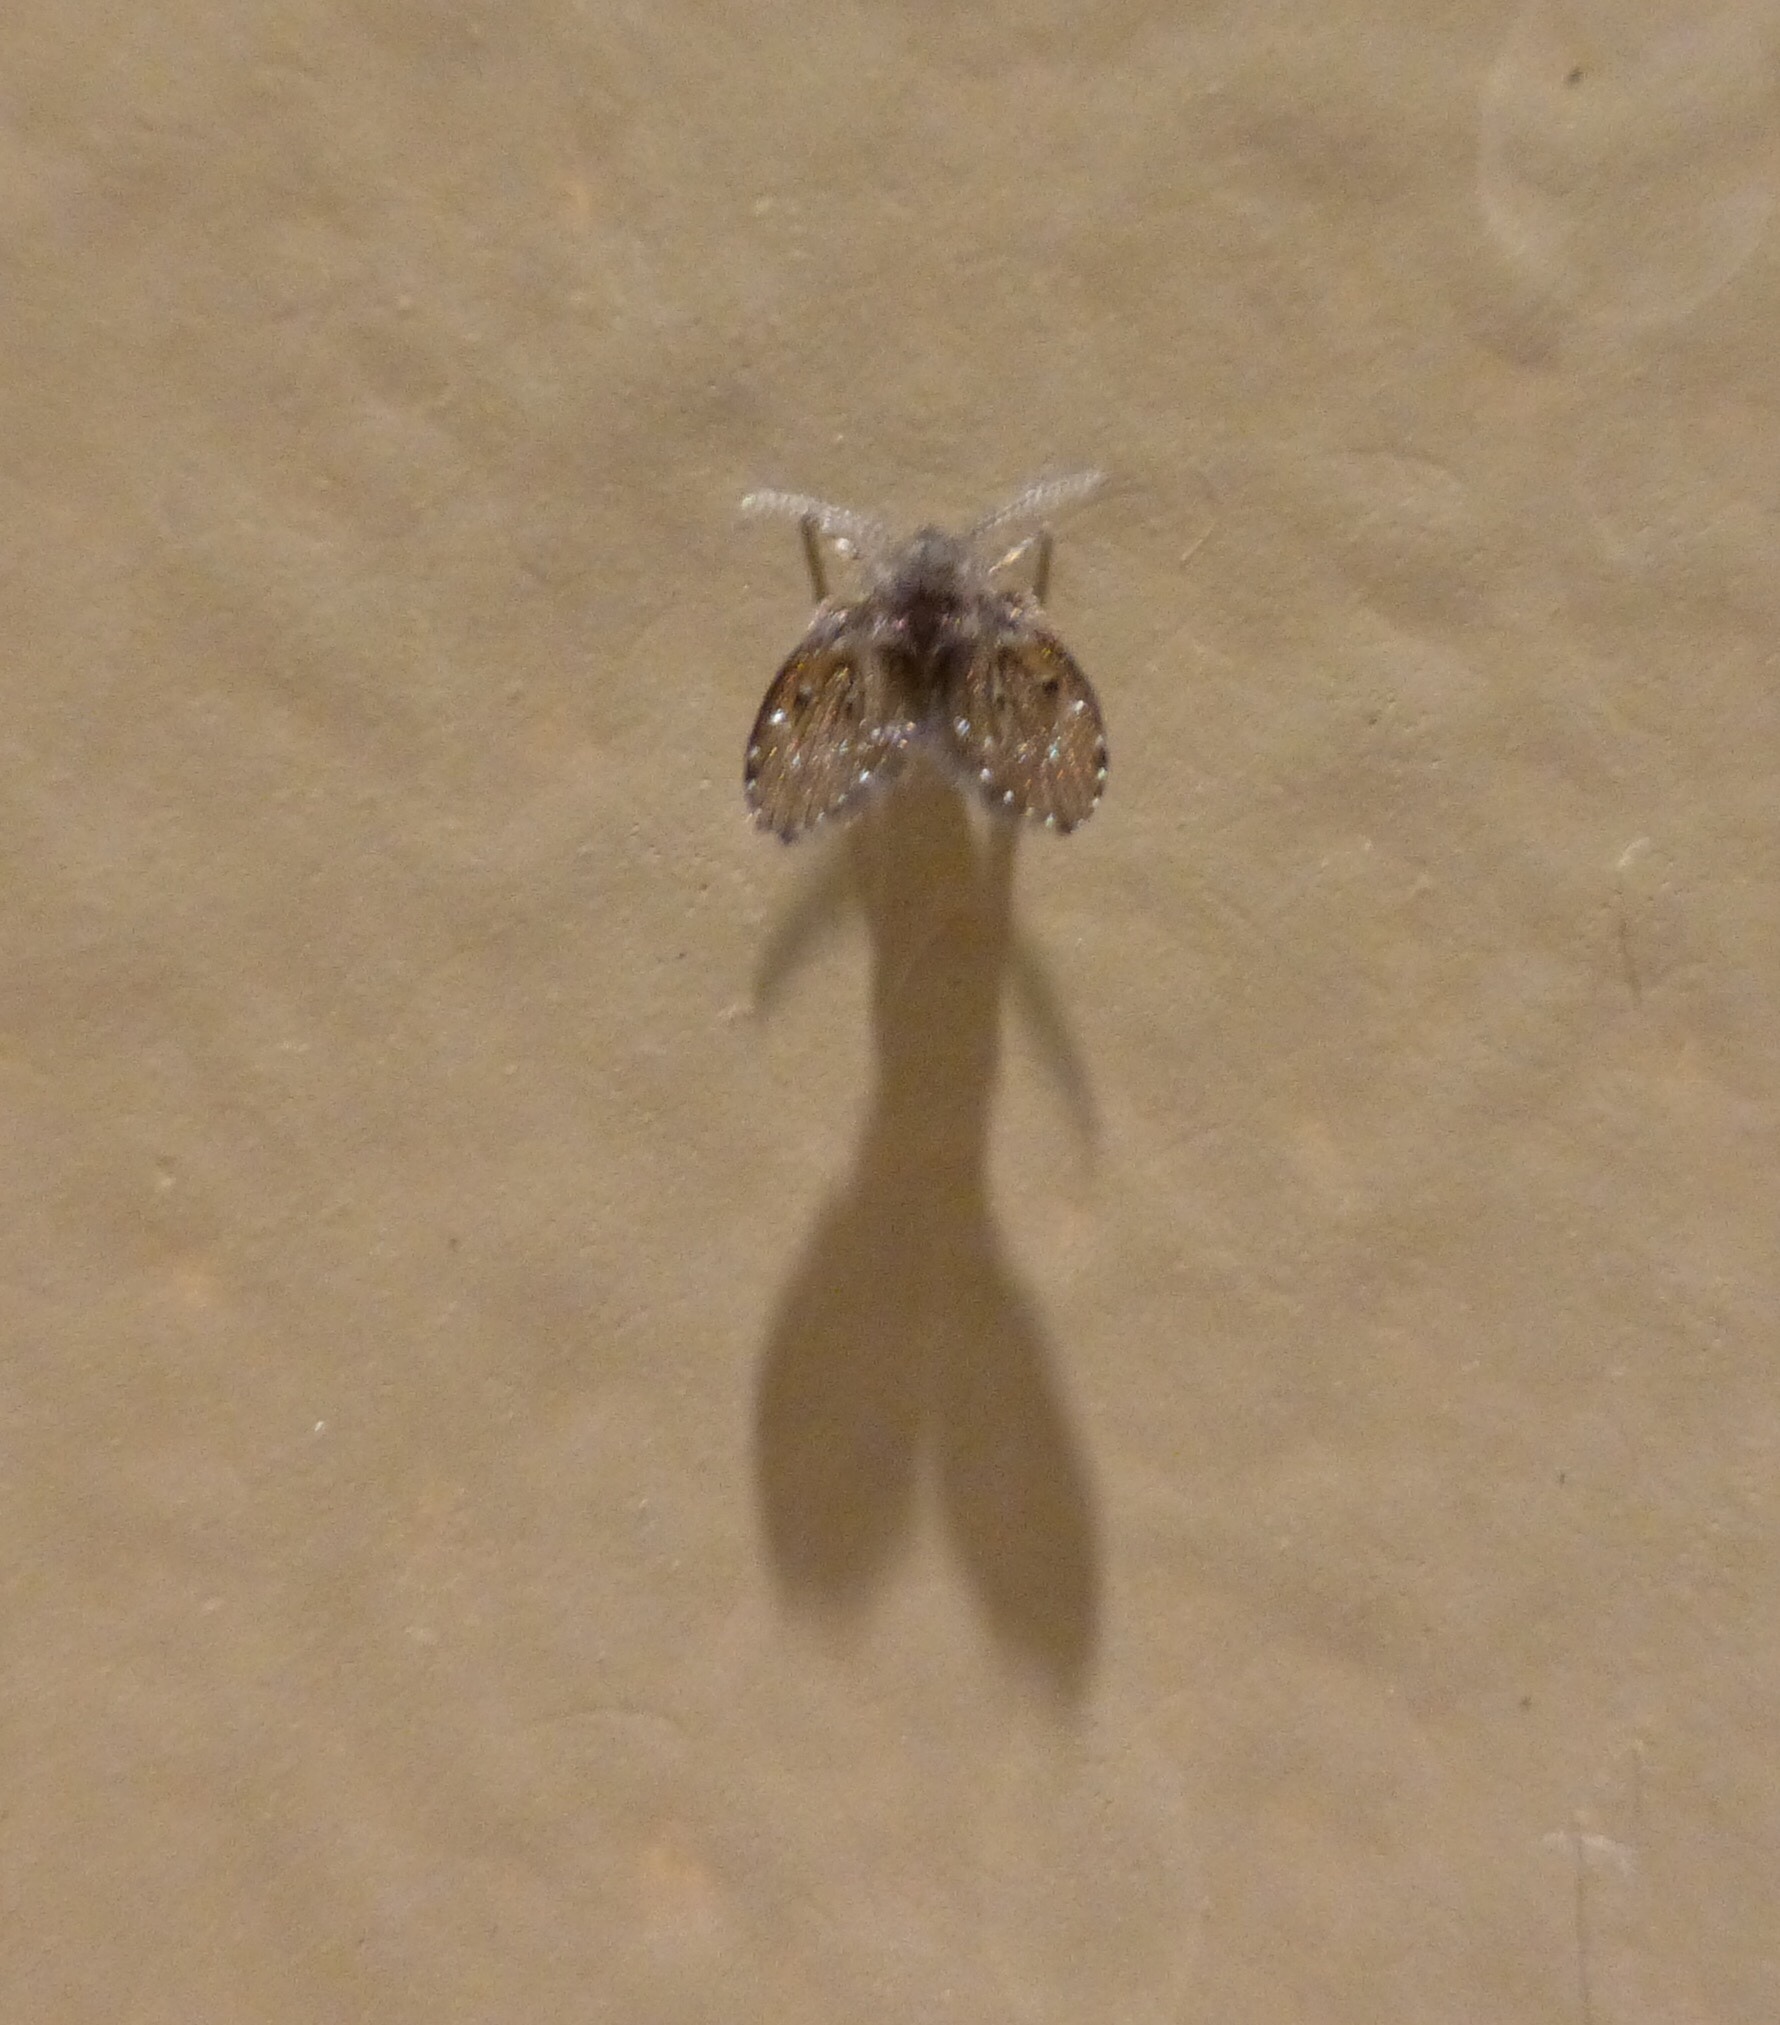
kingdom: Animalia
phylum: Arthropoda
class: Insecta
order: Diptera
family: Psychodidae
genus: Clogmia
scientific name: Clogmia albipunctatus
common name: White-spotted moth fly
